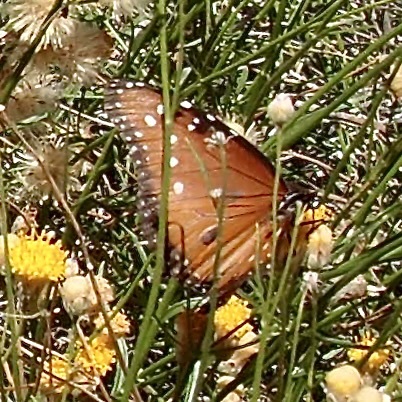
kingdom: Animalia
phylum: Arthropoda
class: Insecta
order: Lepidoptera
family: Nymphalidae
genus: Danaus
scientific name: Danaus gilippus
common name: Queen
